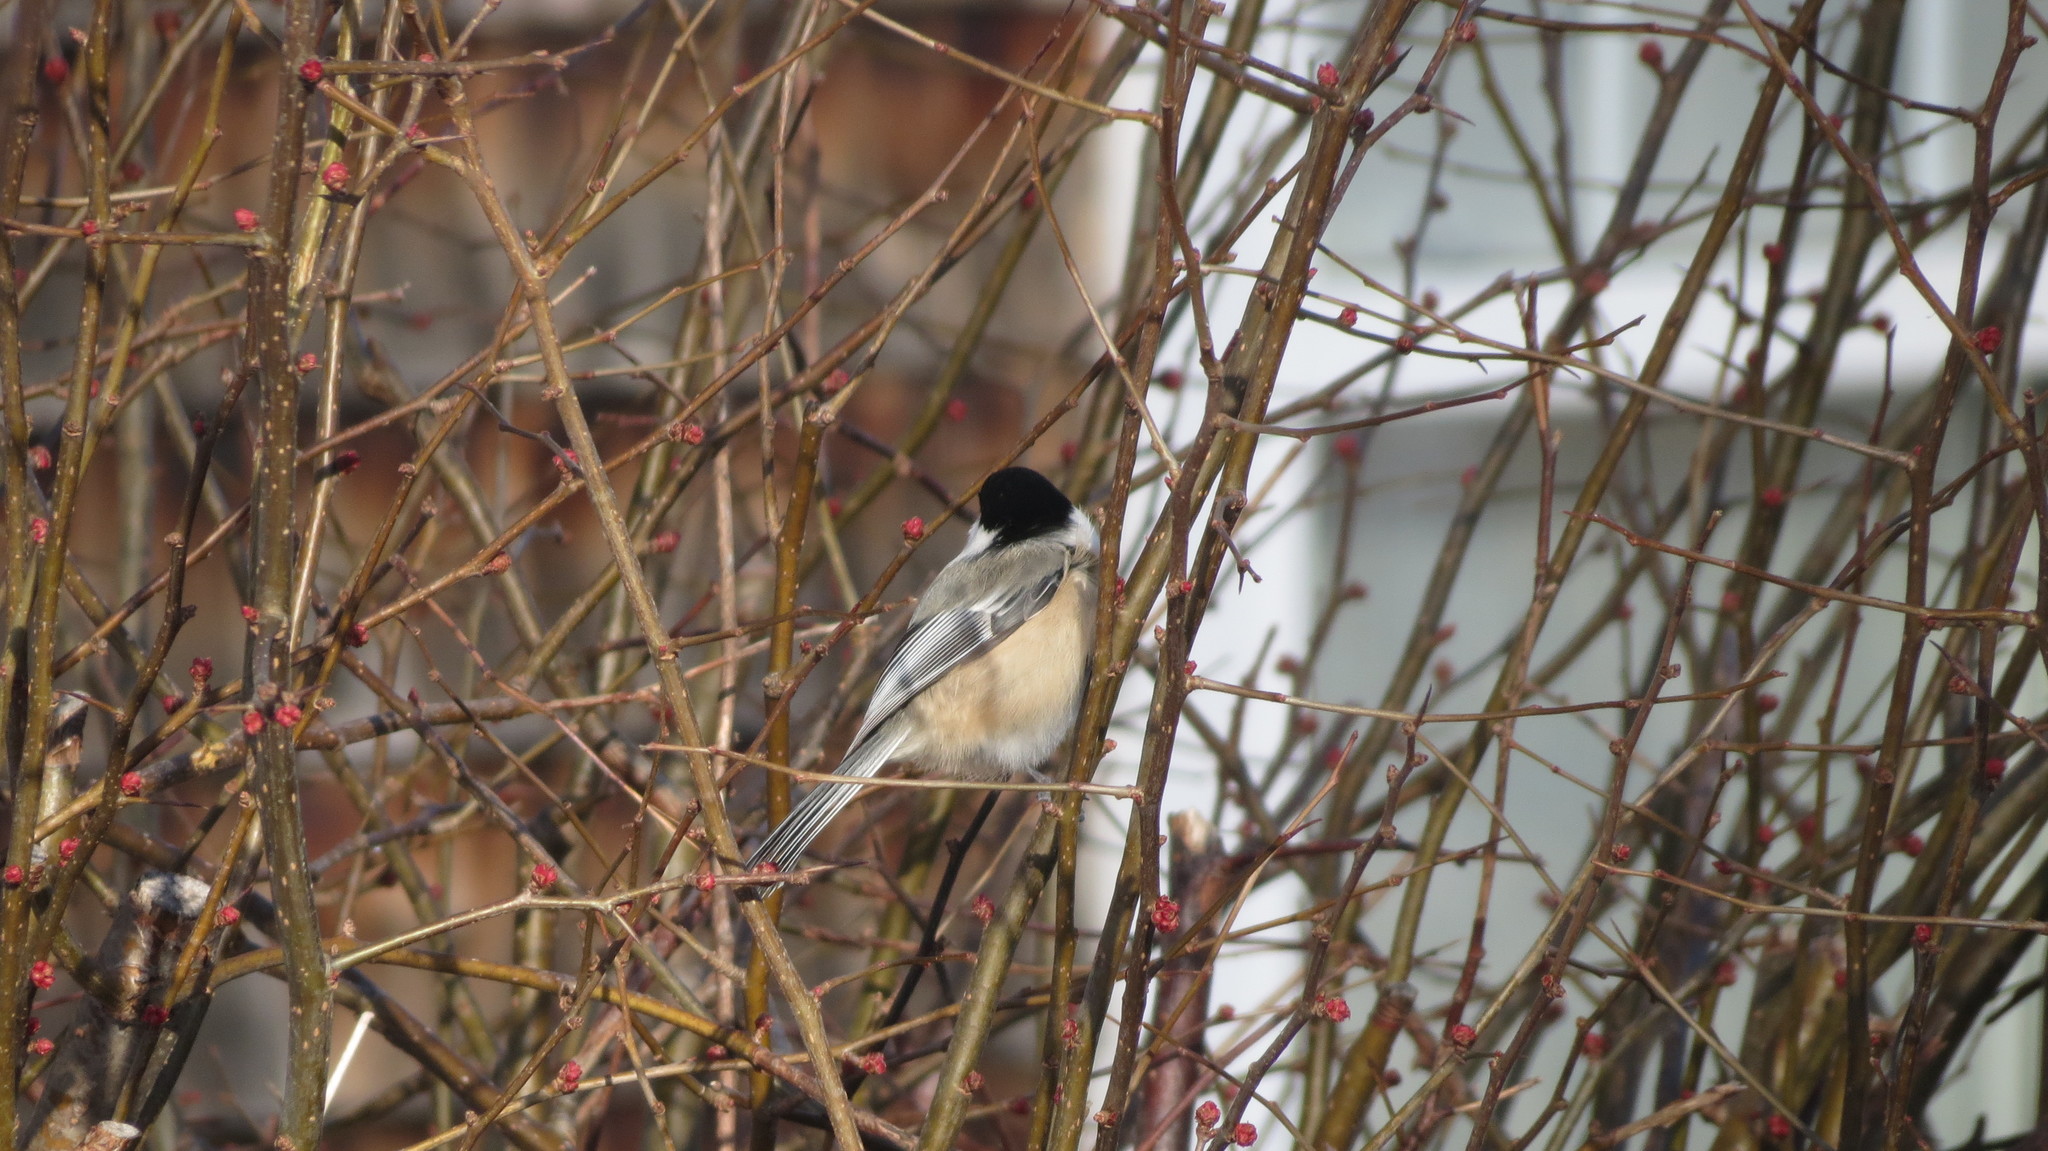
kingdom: Animalia
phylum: Chordata
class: Aves
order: Passeriformes
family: Paridae
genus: Poecile
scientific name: Poecile atricapillus
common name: Black-capped chickadee
